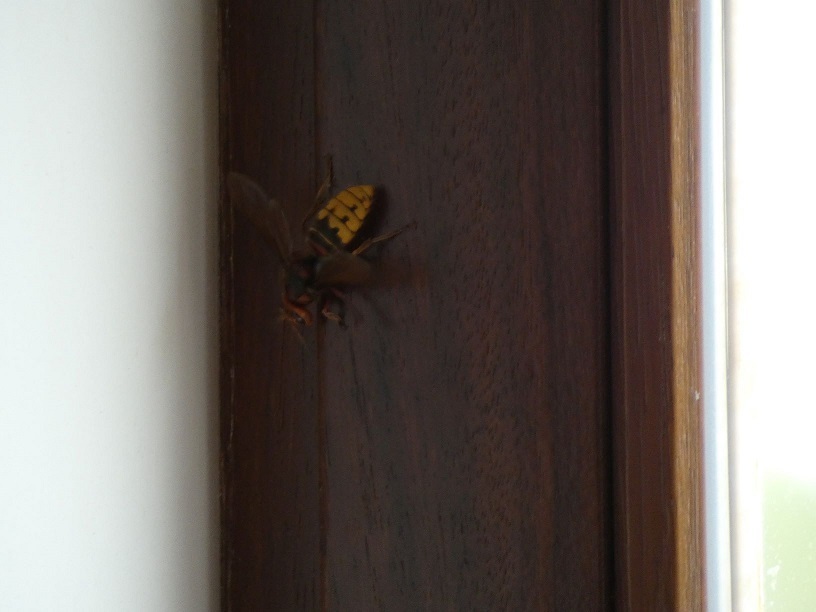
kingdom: Animalia
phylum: Arthropoda
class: Insecta
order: Hymenoptera
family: Vespidae
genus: Vespa
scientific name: Vespa crabro
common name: Hornet
